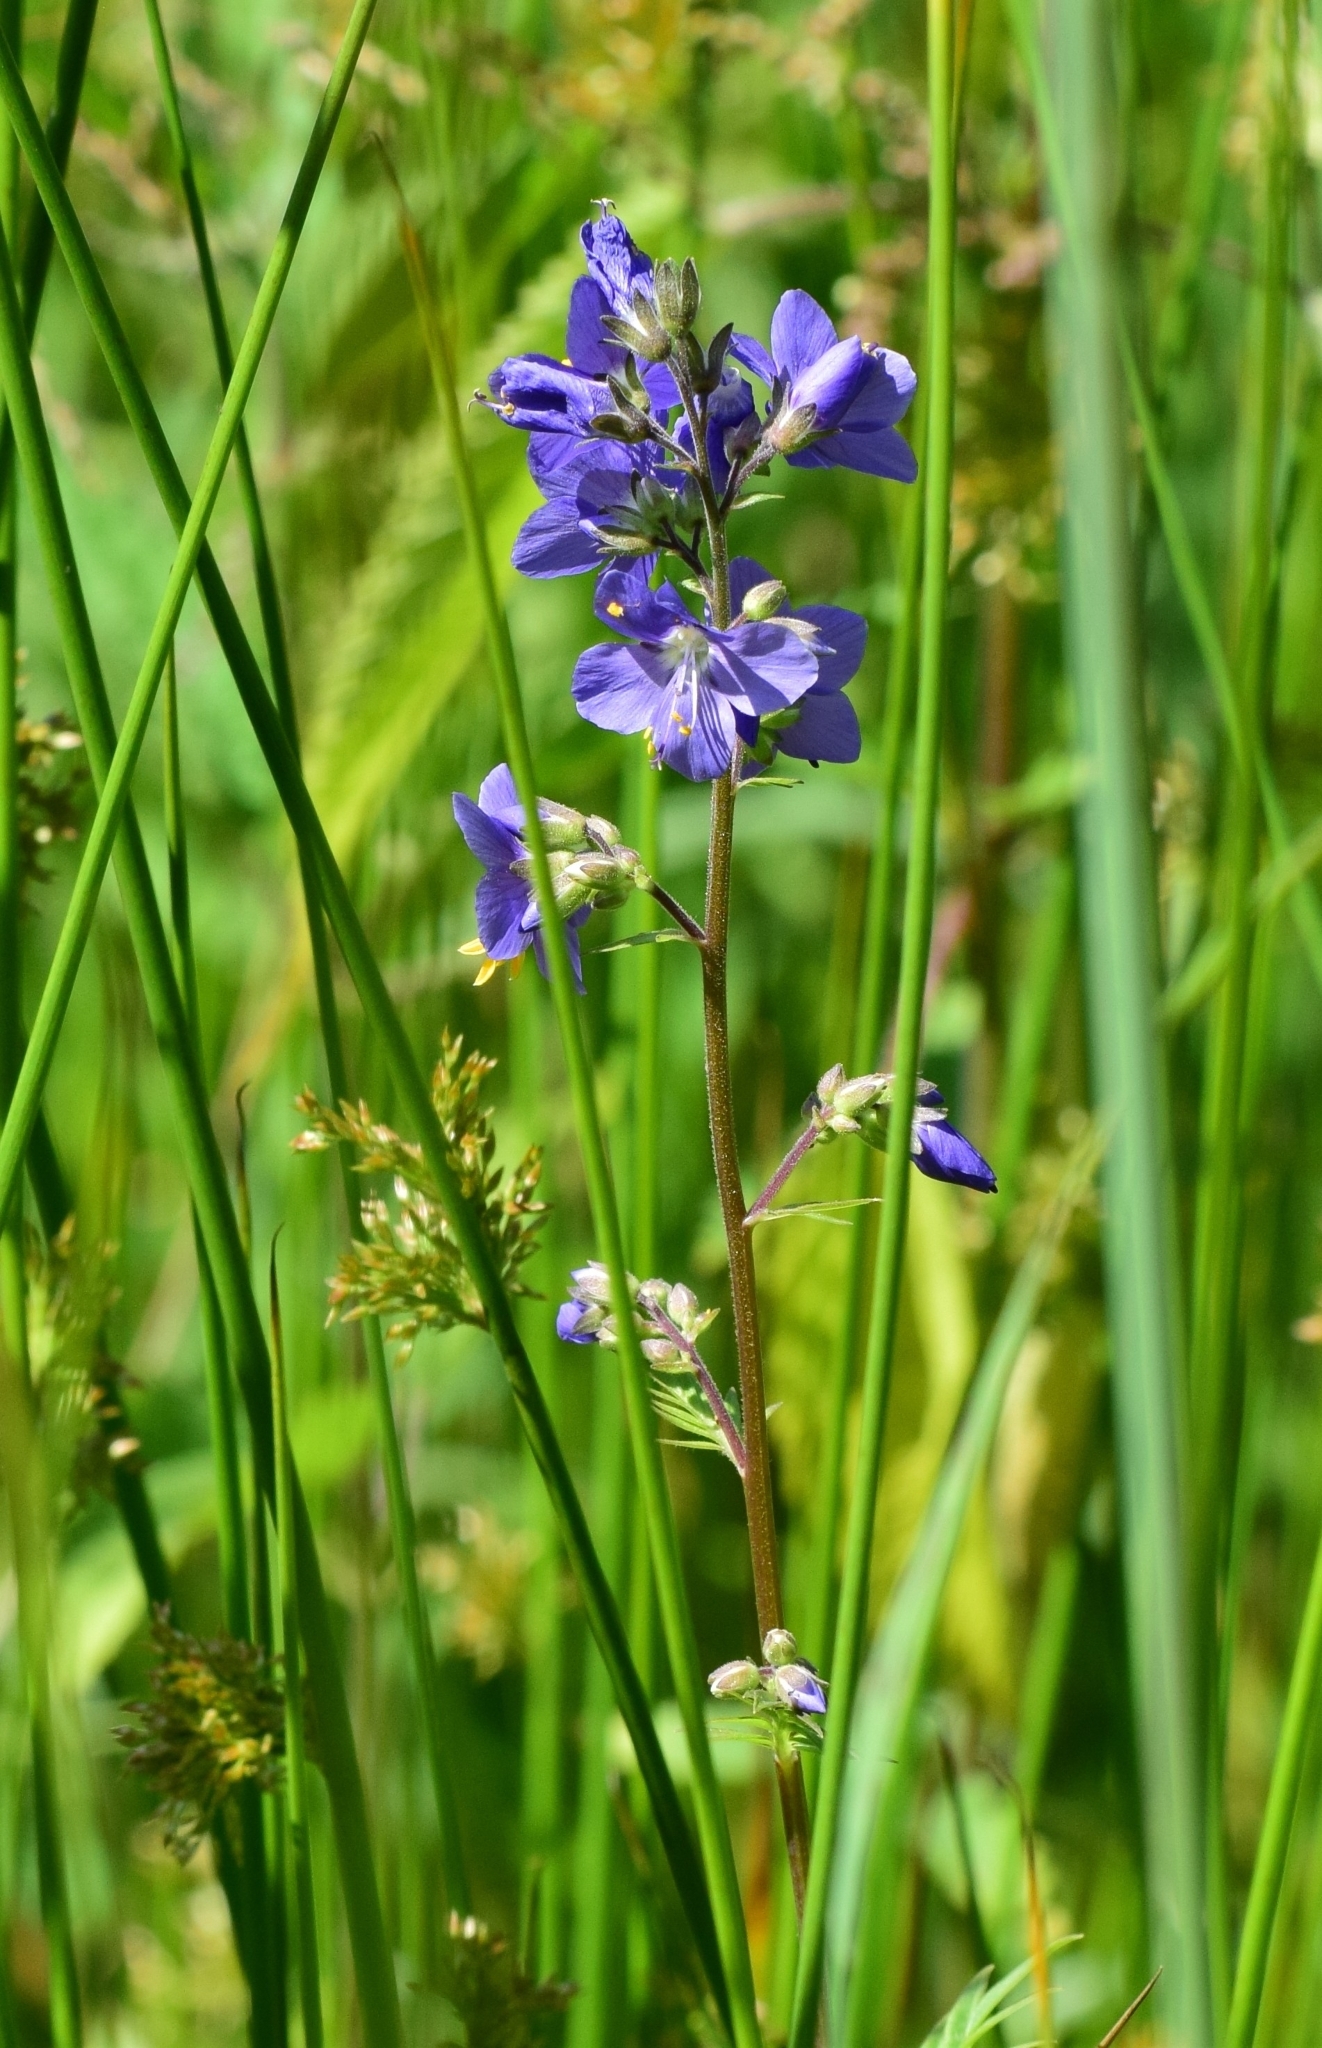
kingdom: Plantae
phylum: Tracheophyta
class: Magnoliopsida
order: Ericales
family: Polemoniaceae
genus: Polemonium
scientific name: Polemonium caeruleum
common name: Jacob's-ladder
